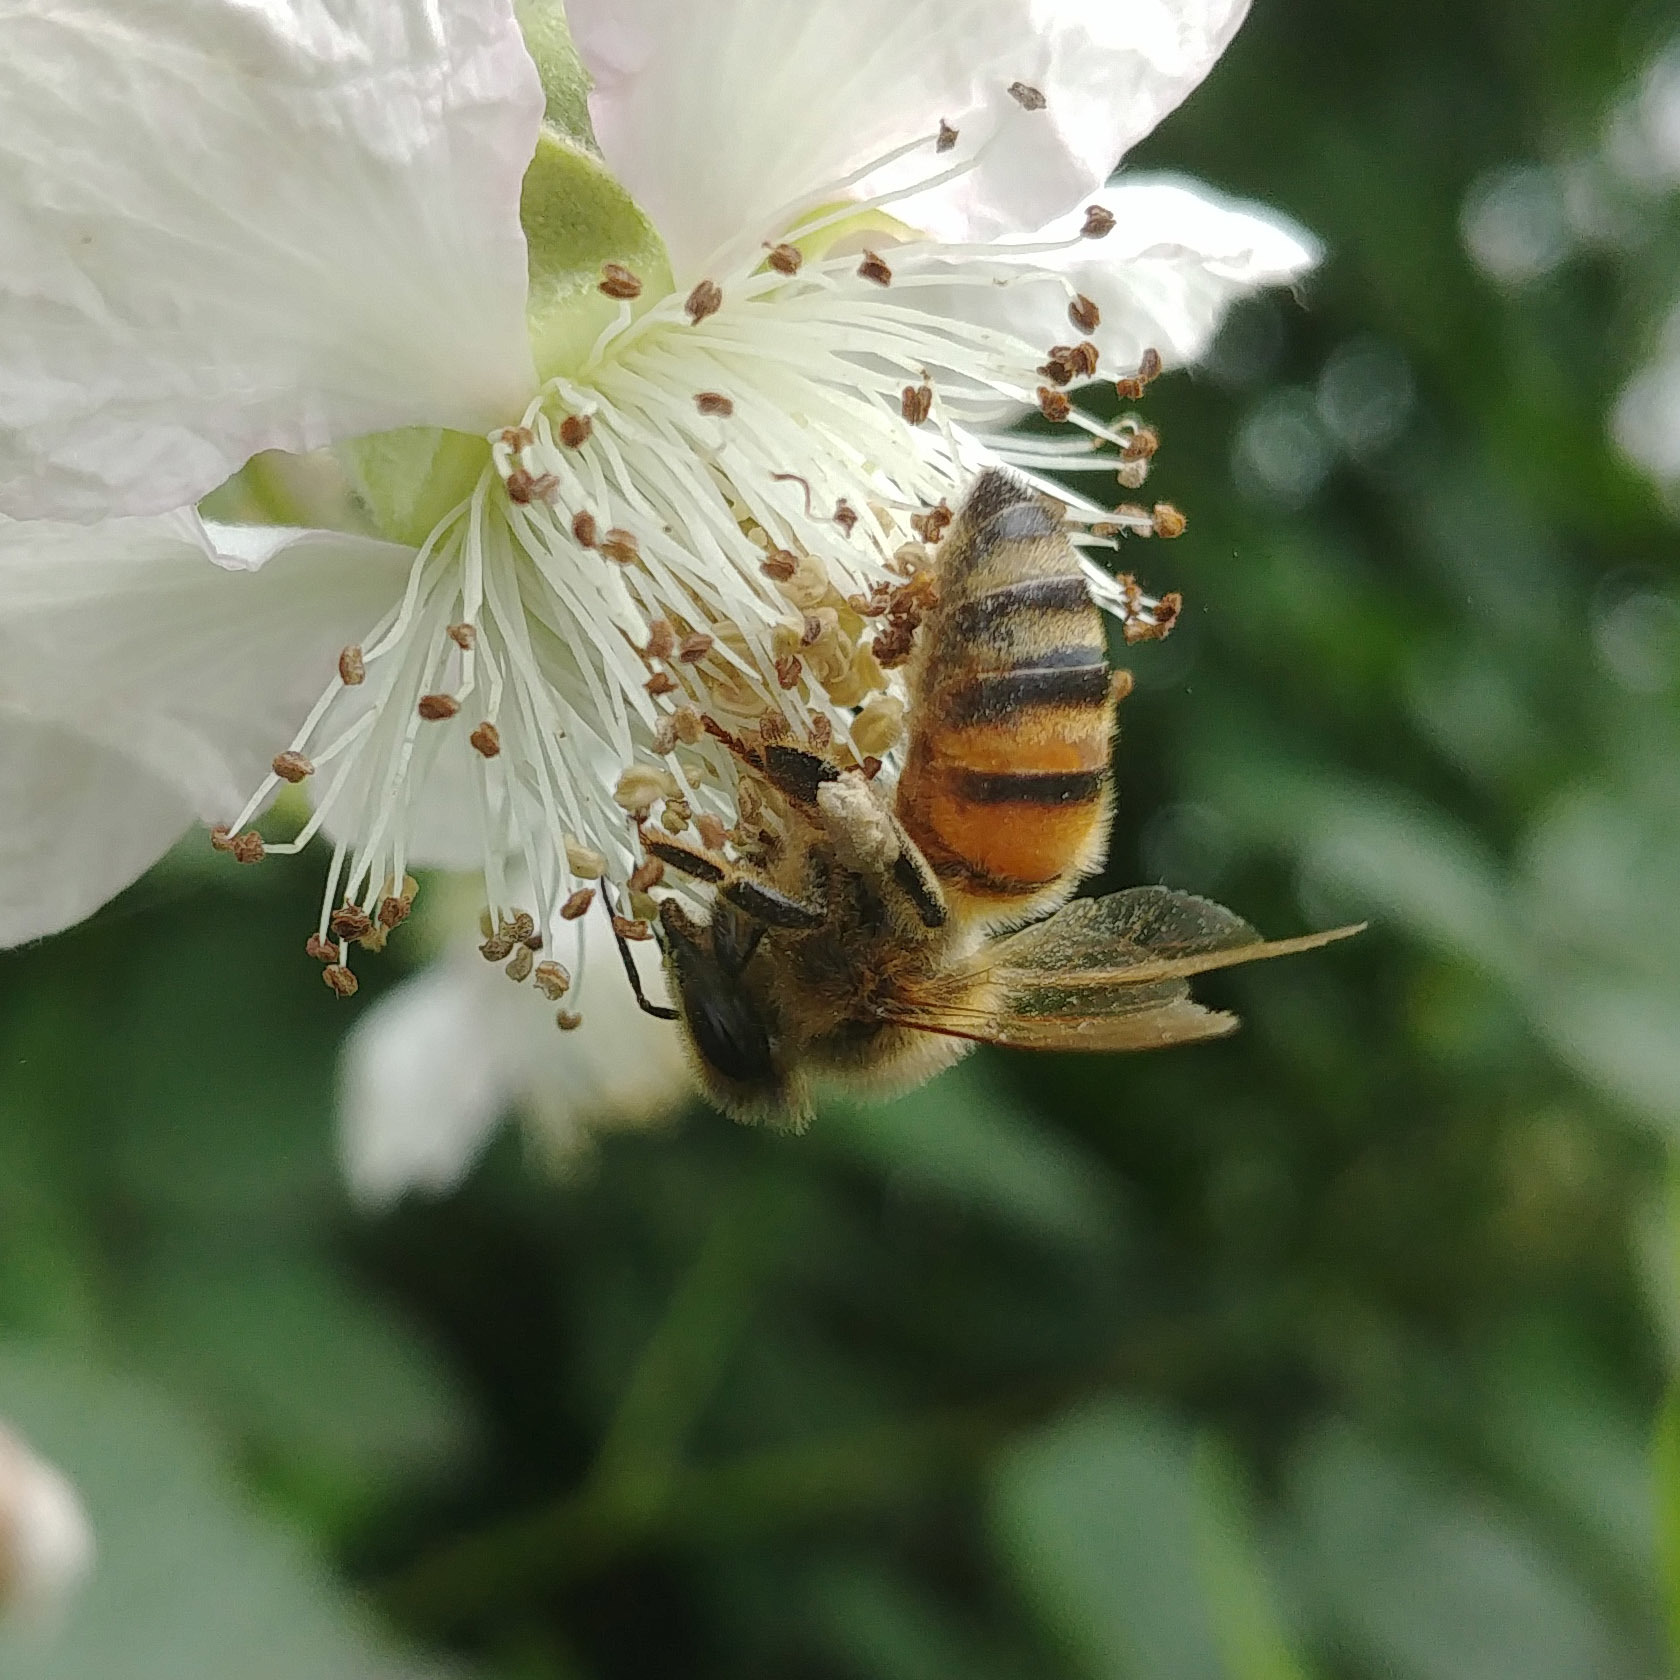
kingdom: Animalia
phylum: Arthropoda
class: Insecta
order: Hymenoptera
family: Apidae
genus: Apis
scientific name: Apis mellifera
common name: Honey bee
